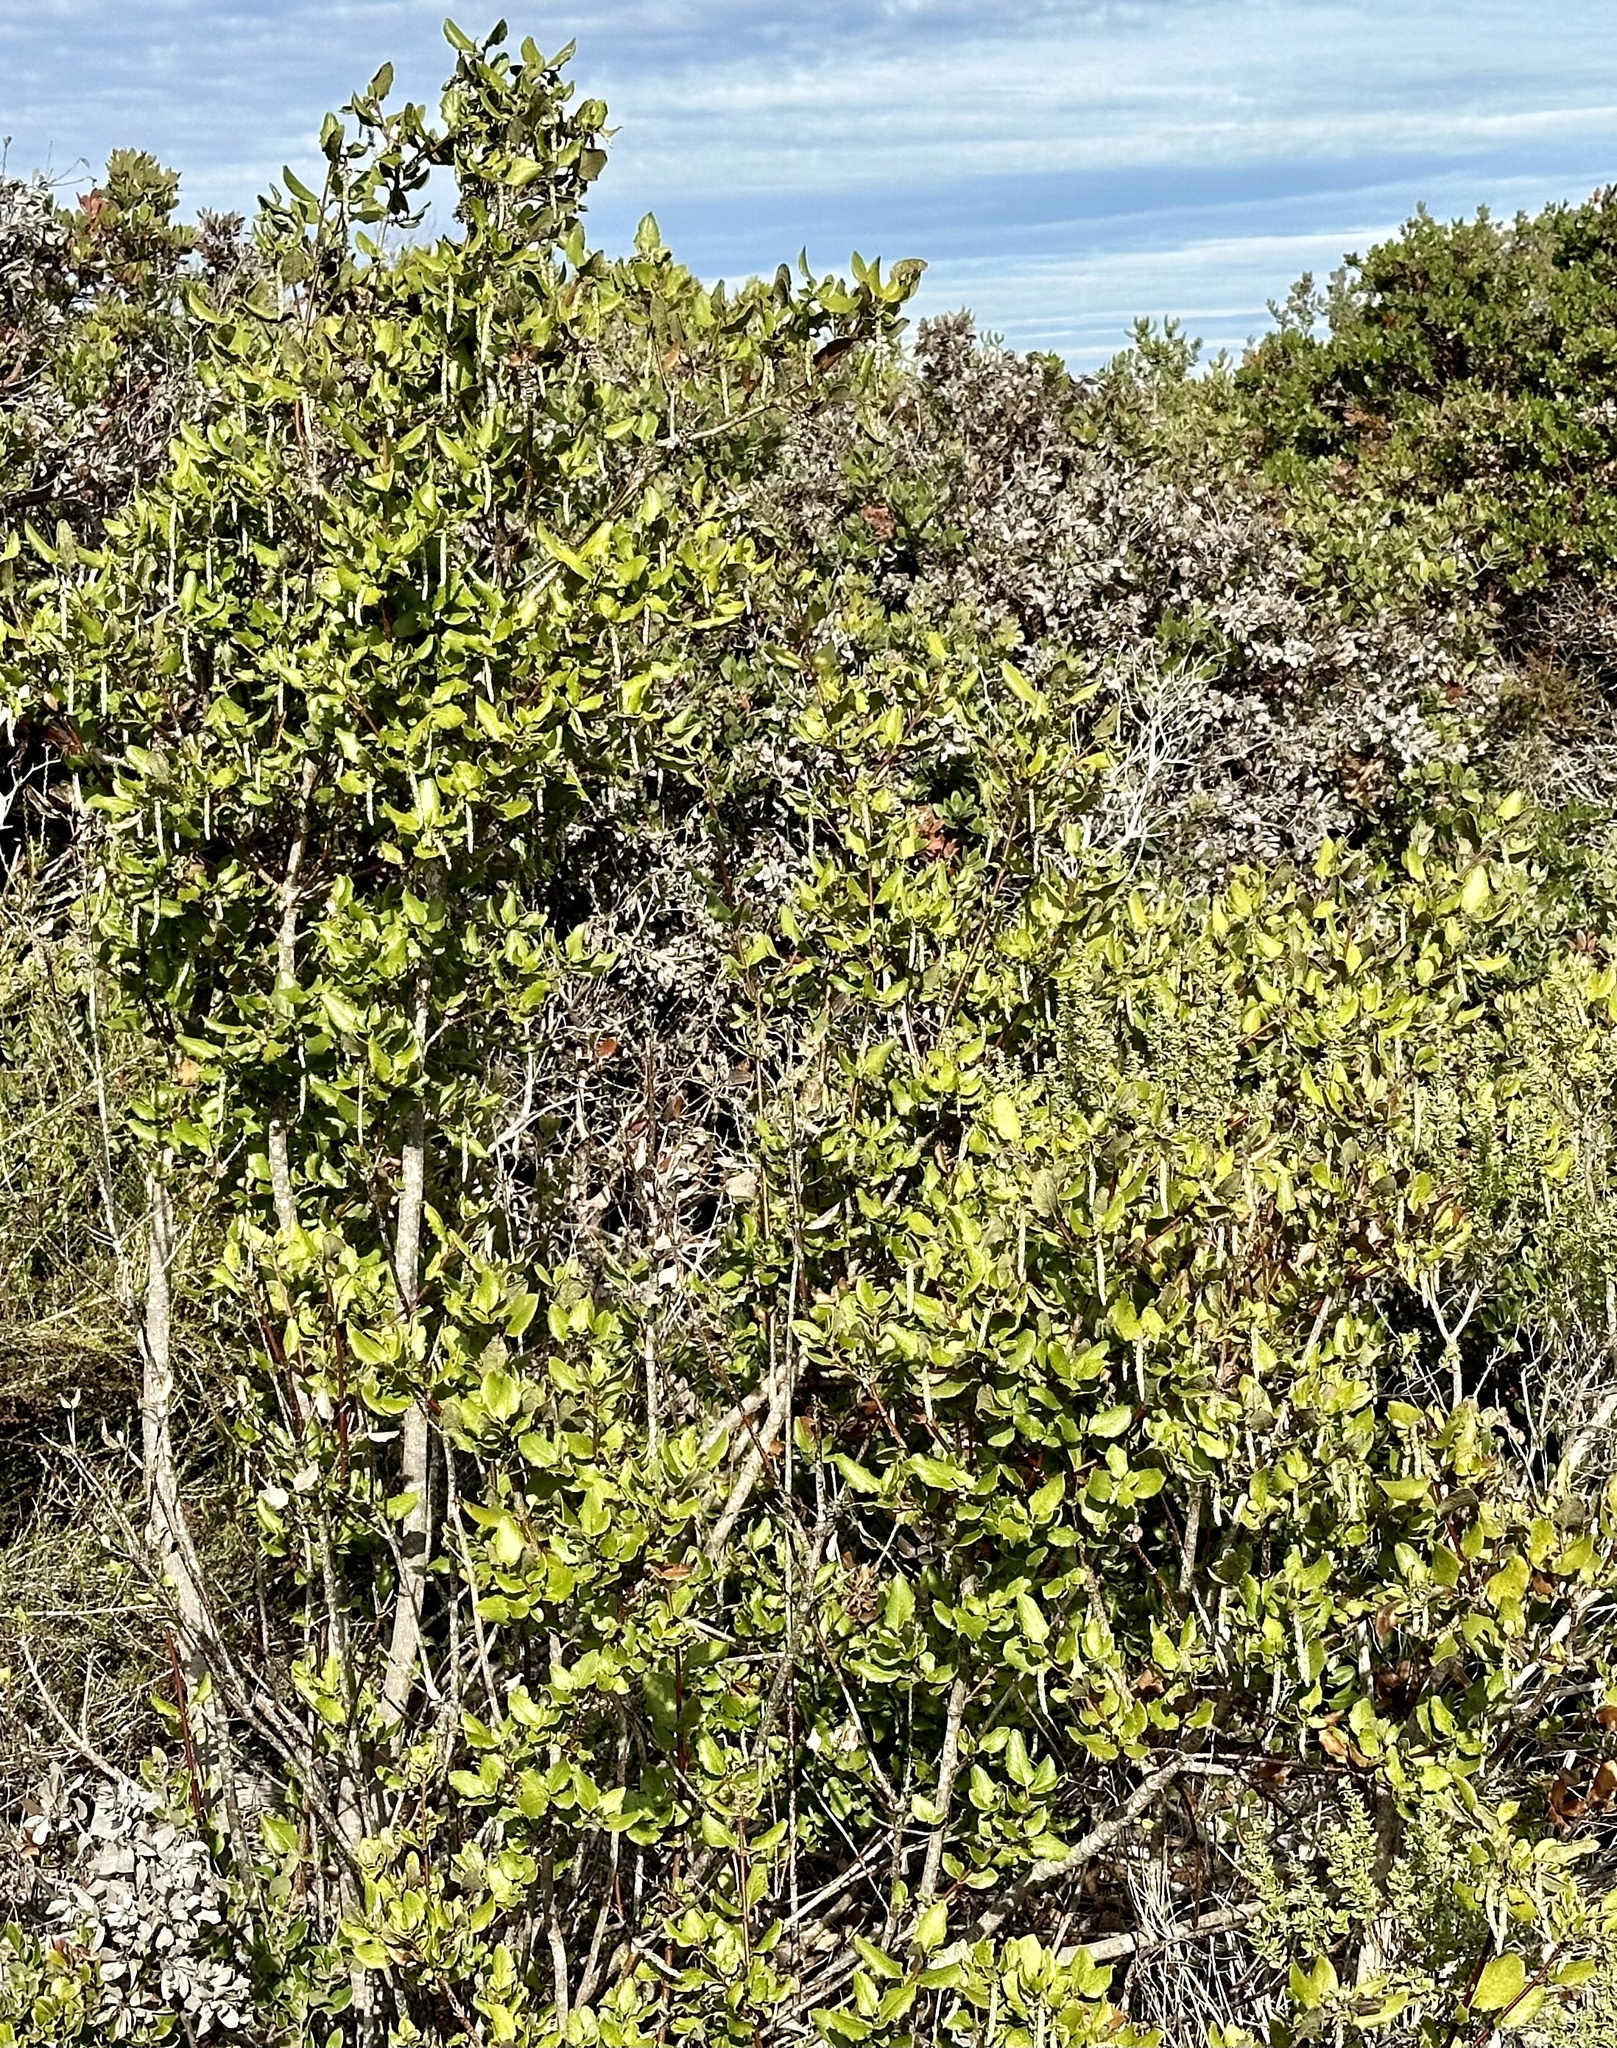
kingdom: Plantae
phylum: Tracheophyta
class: Magnoliopsida
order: Garryales
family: Garryaceae
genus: Garrya
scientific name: Garrya elliptica
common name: Silk-tassel
